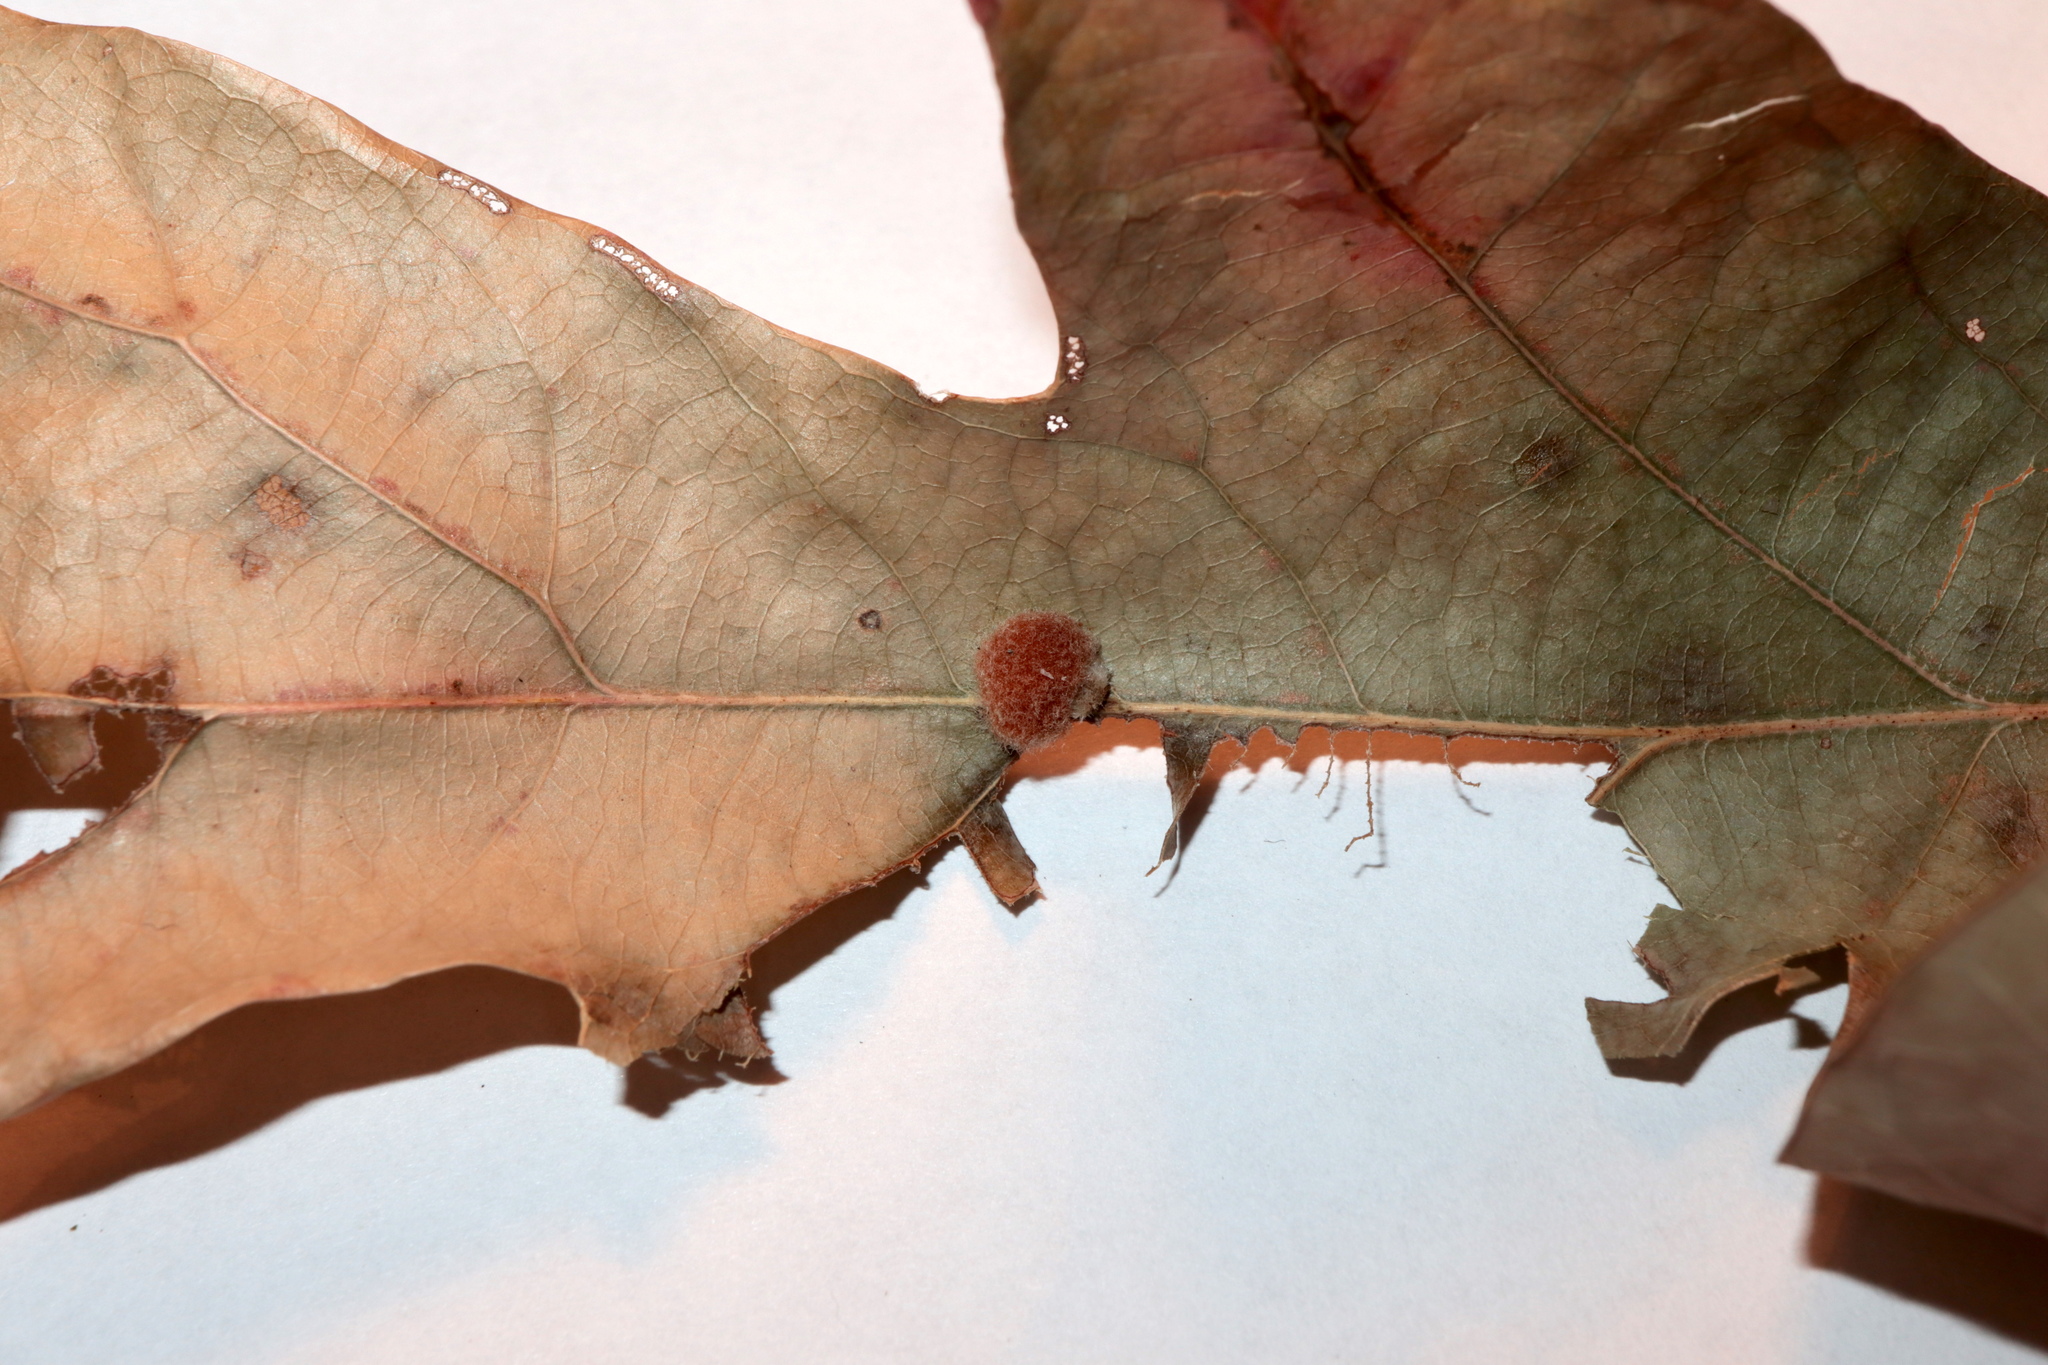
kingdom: Animalia
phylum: Arthropoda
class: Insecta
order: Hymenoptera
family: Cynipidae
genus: Andricus
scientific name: Andricus quercusflocci
